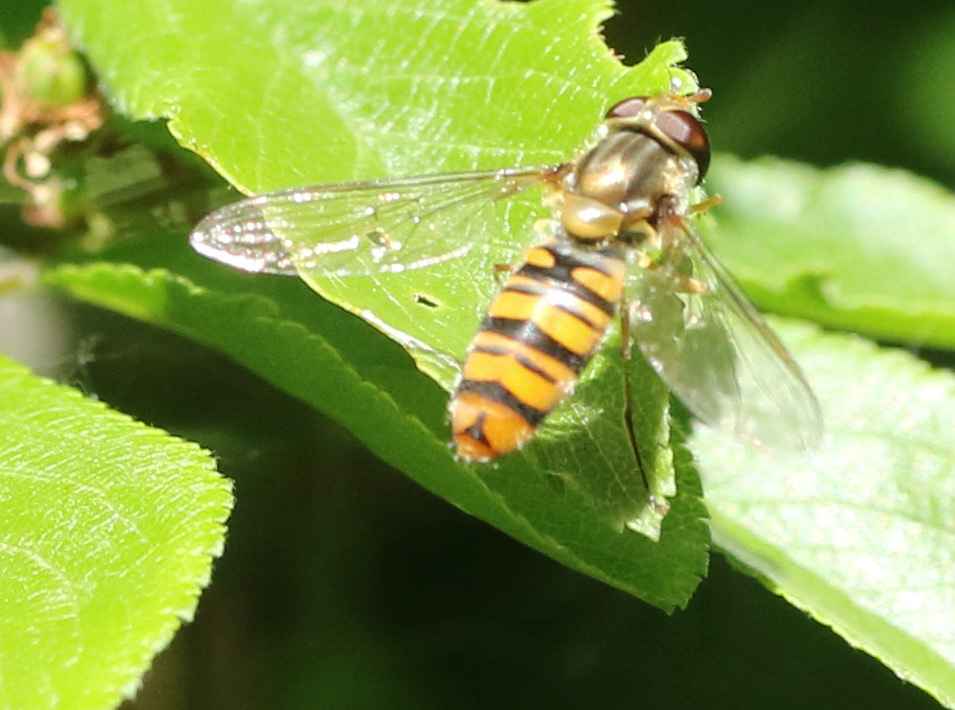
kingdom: Animalia
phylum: Arthropoda
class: Insecta
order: Diptera
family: Syrphidae
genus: Episyrphus
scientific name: Episyrphus balteatus
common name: Marmalade hoverfly
